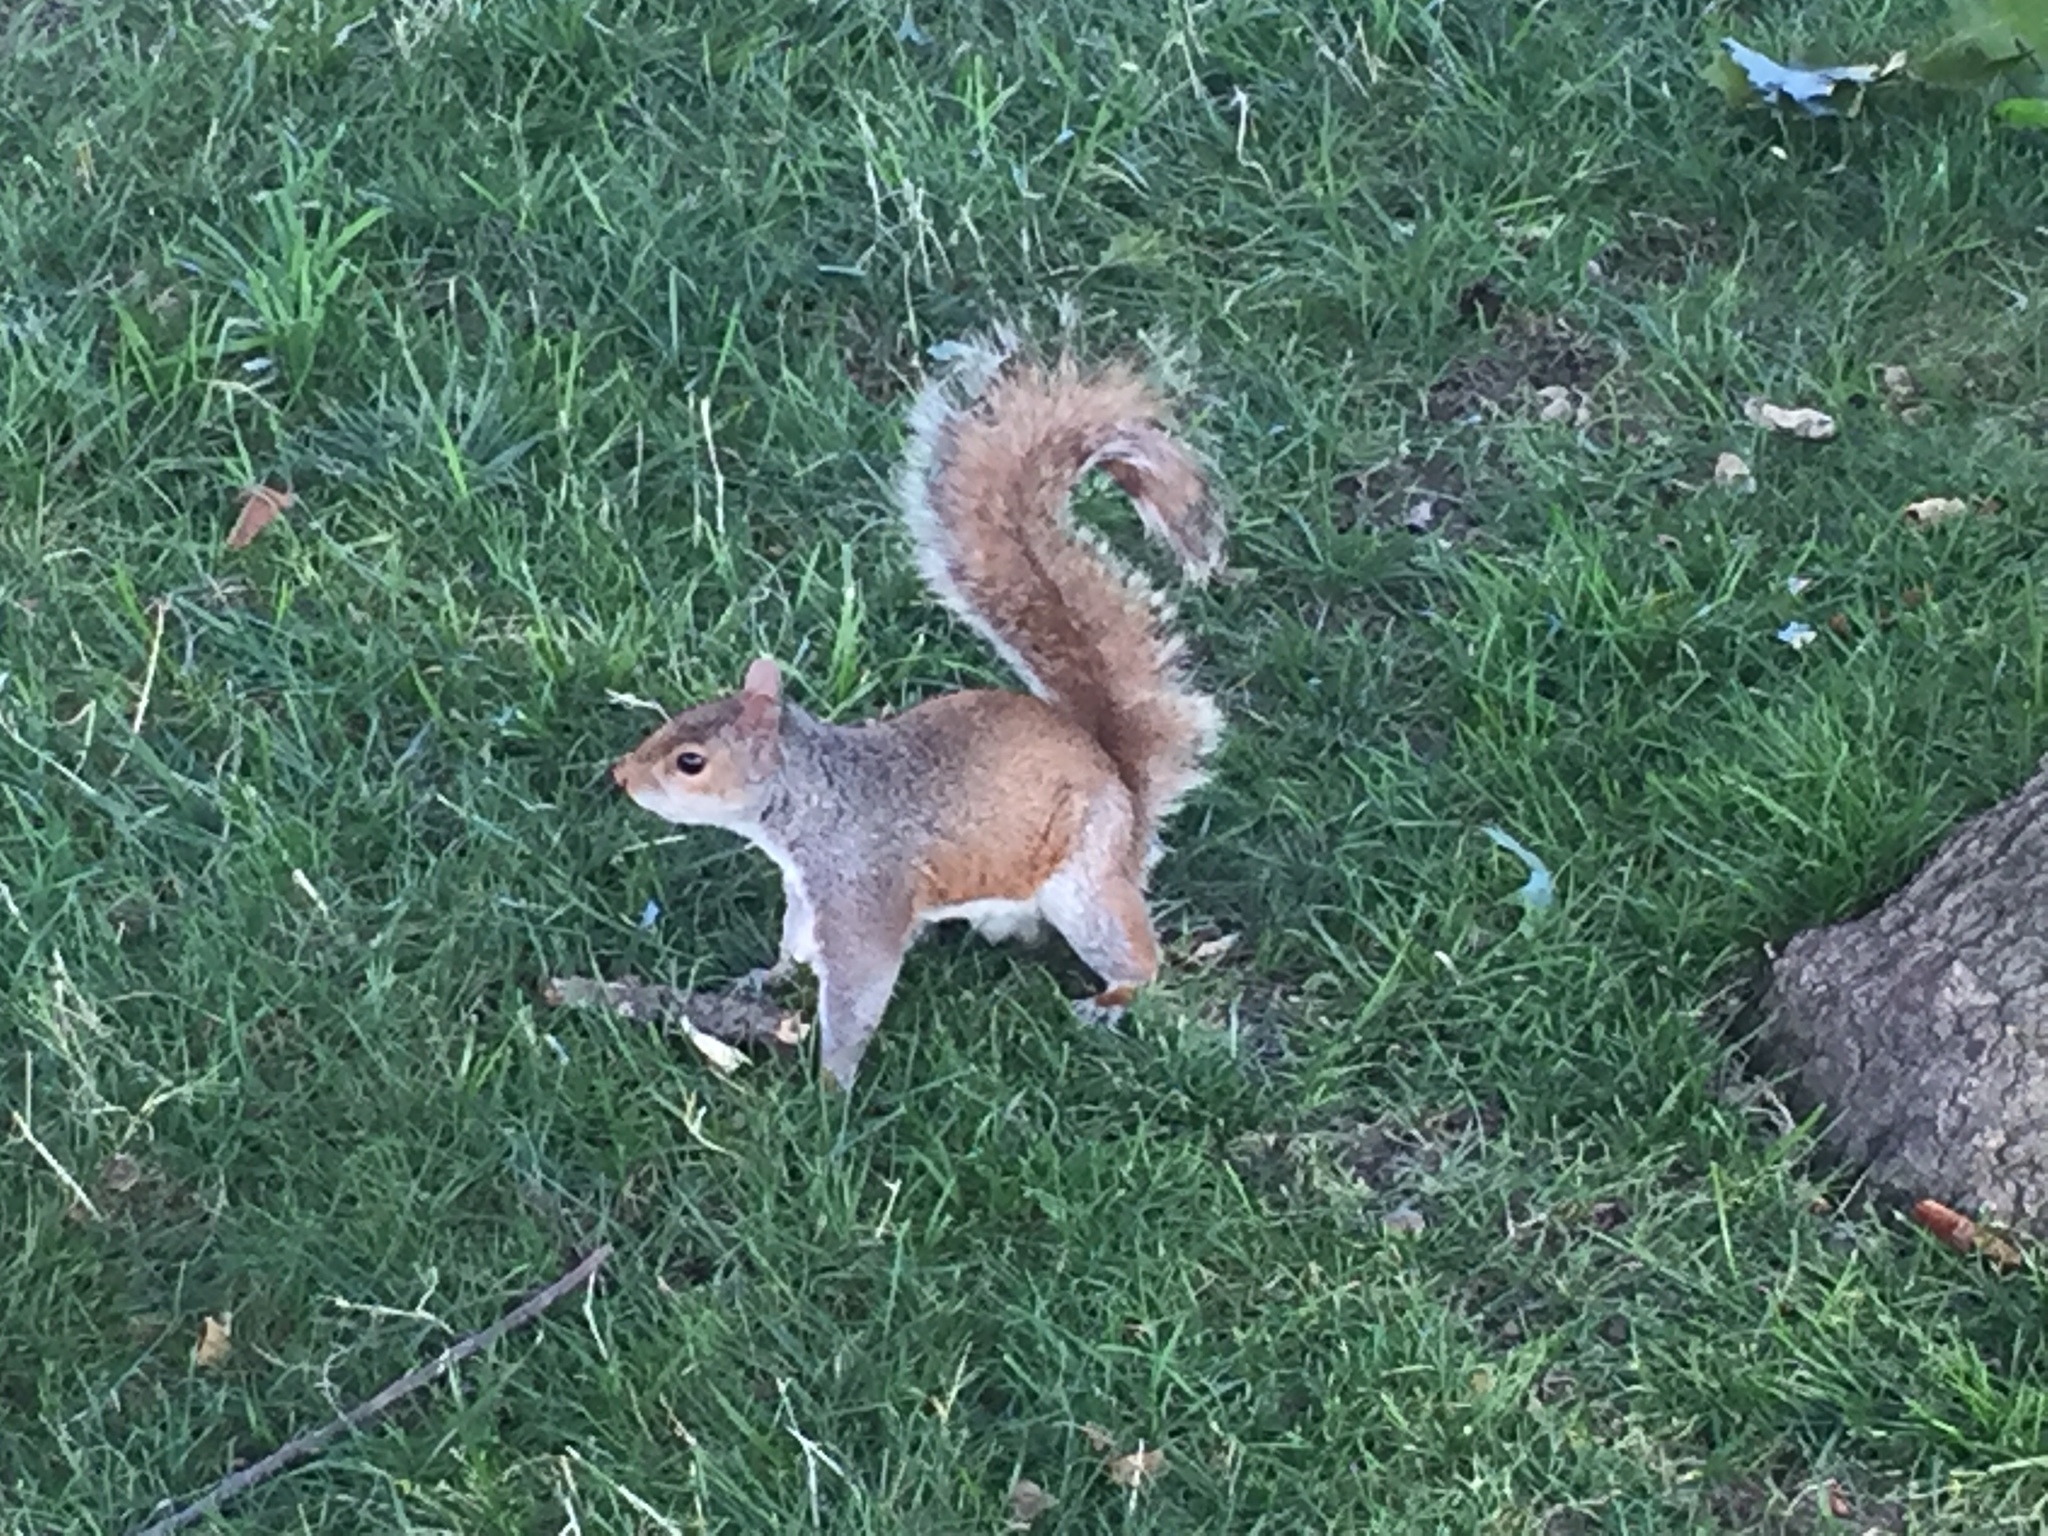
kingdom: Animalia
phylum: Chordata
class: Mammalia
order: Rodentia
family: Sciuridae
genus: Sciurus
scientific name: Sciurus carolinensis
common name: Eastern gray squirrel
